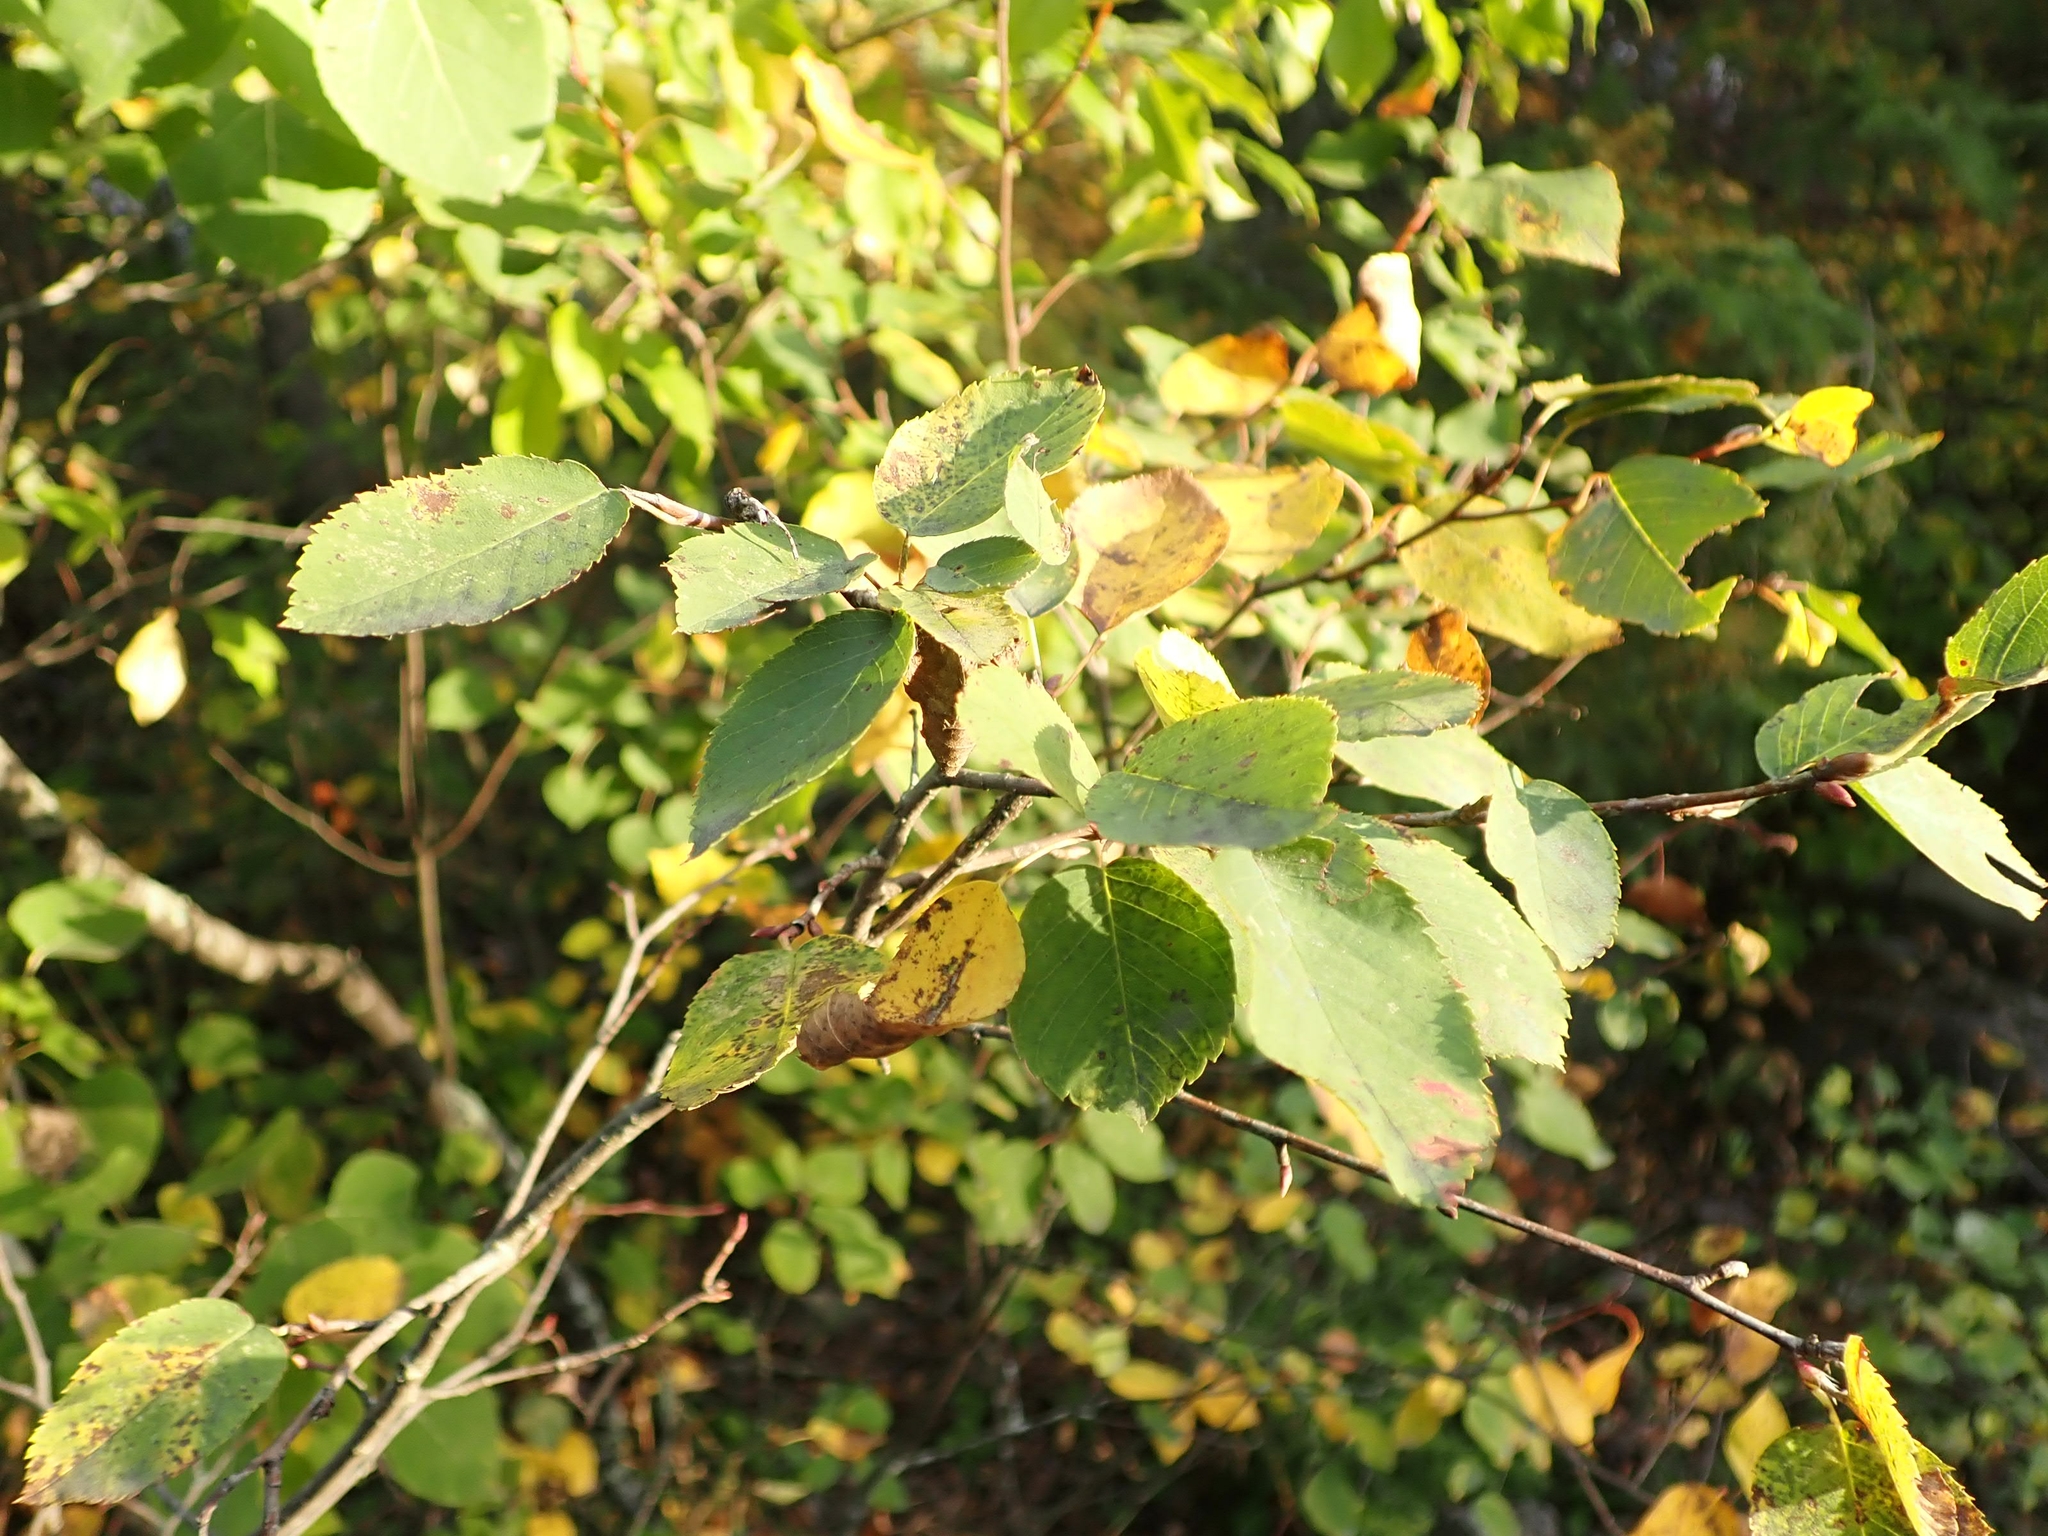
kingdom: Plantae
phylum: Tracheophyta
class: Magnoliopsida
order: Rosales
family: Rosaceae
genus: Amelanchier
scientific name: Amelanchier alnifolia
